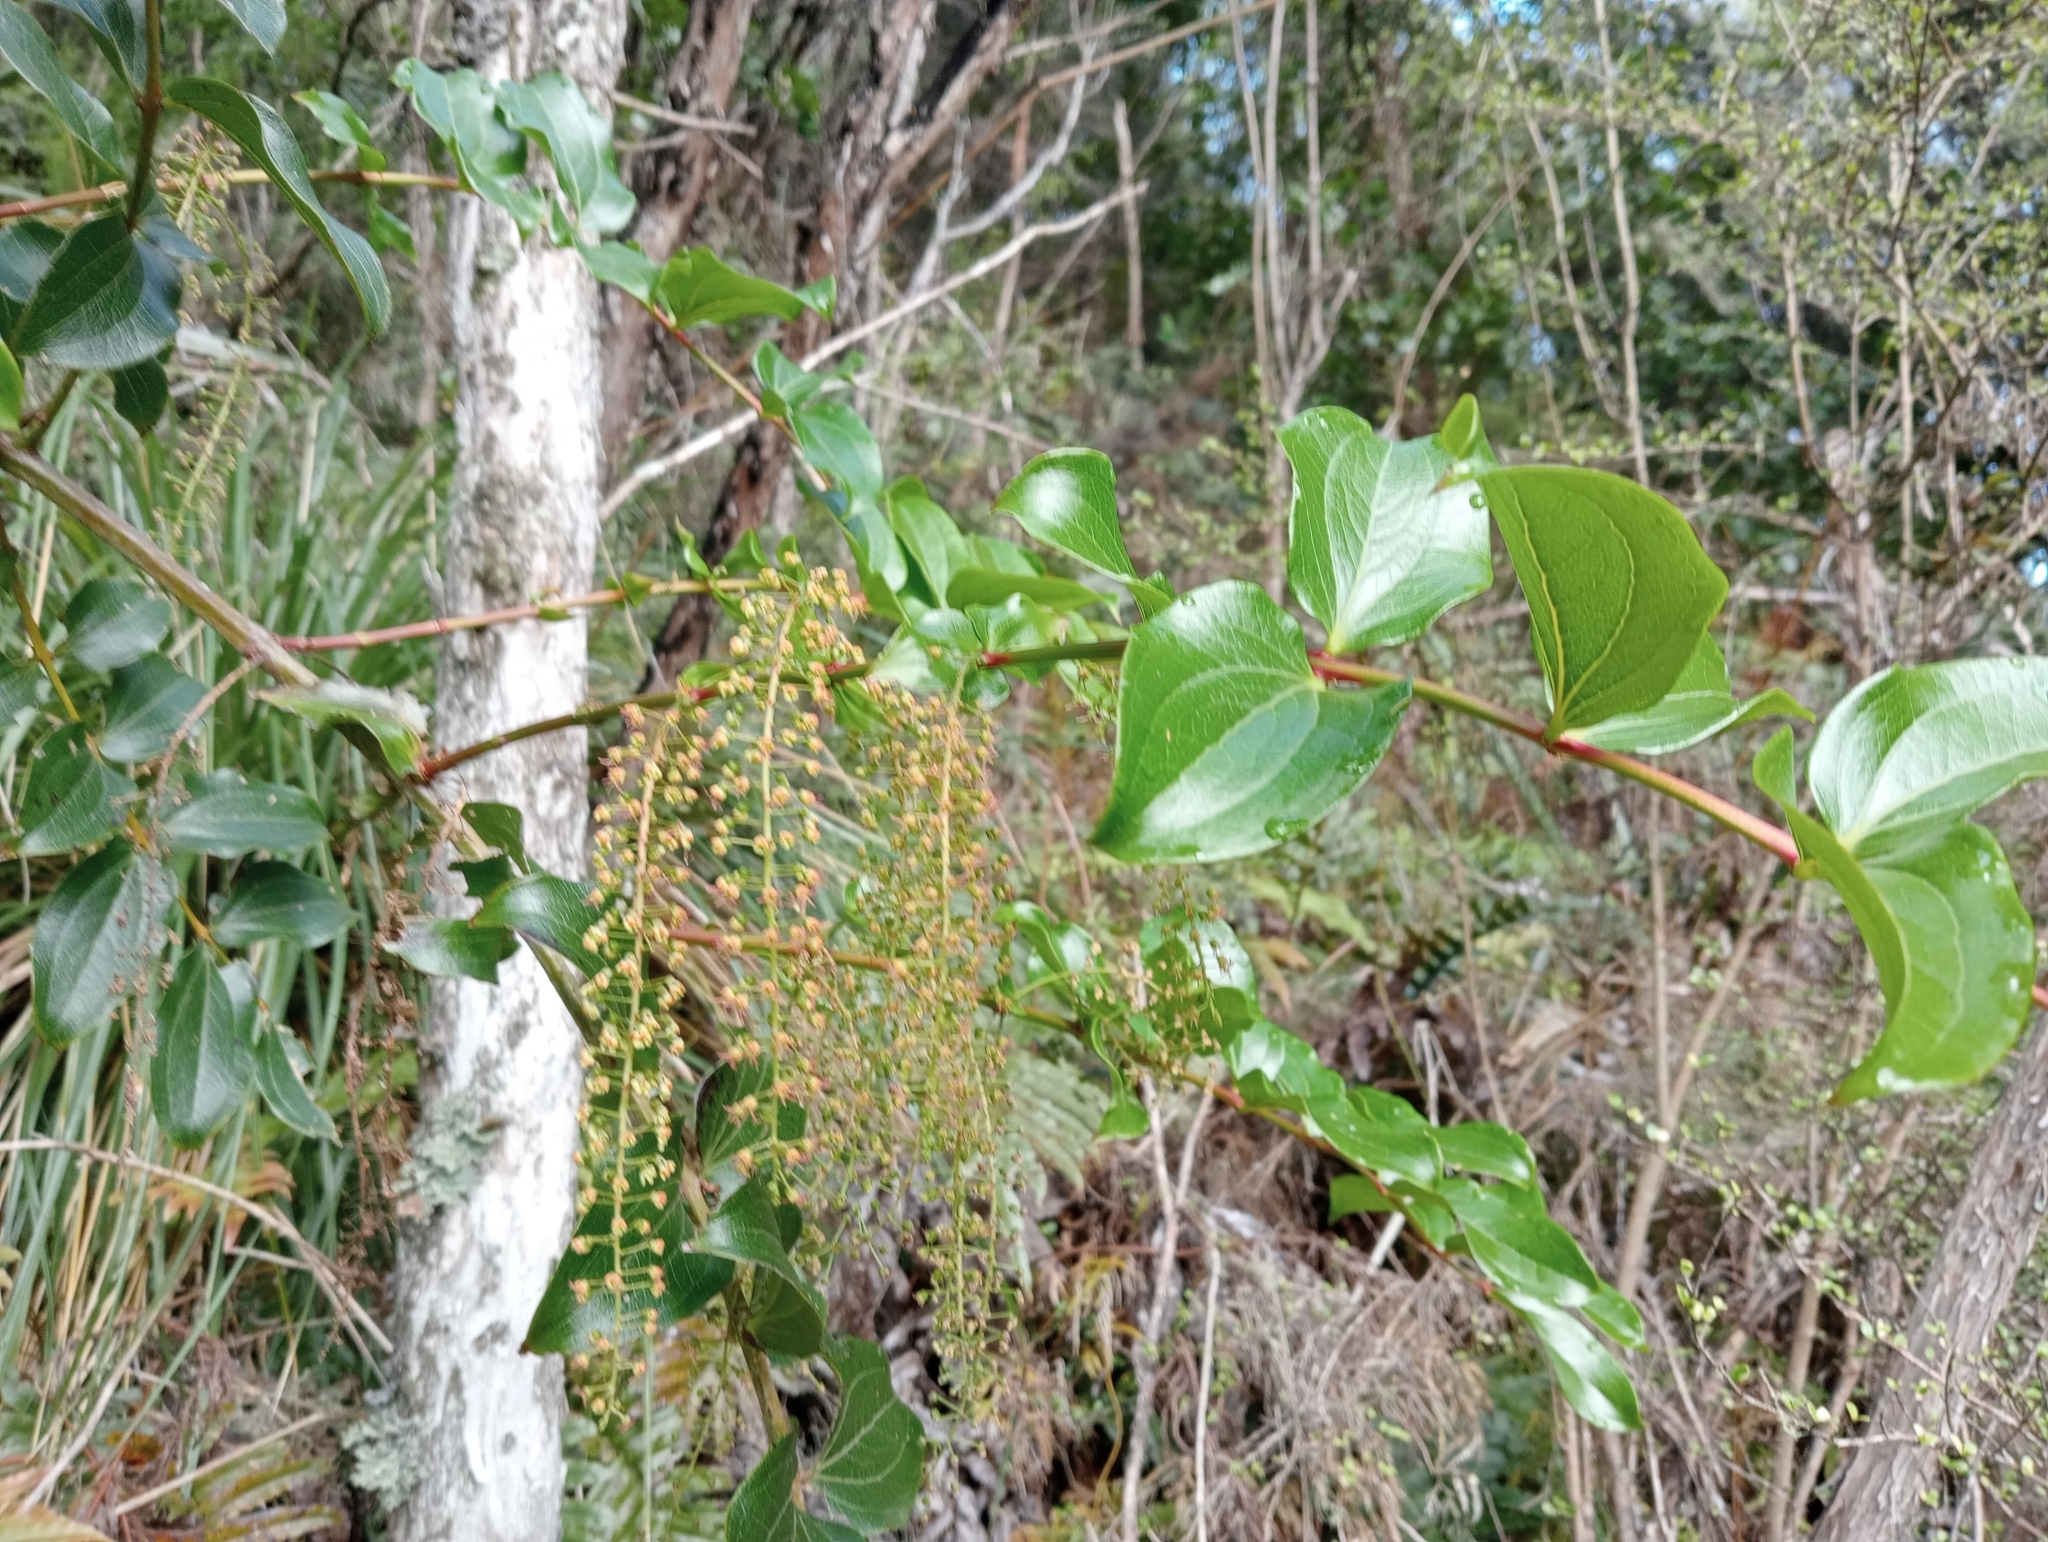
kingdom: Plantae
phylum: Tracheophyta
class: Magnoliopsida
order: Cucurbitales
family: Coriariaceae
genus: Coriaria
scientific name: Coriaria arborea
